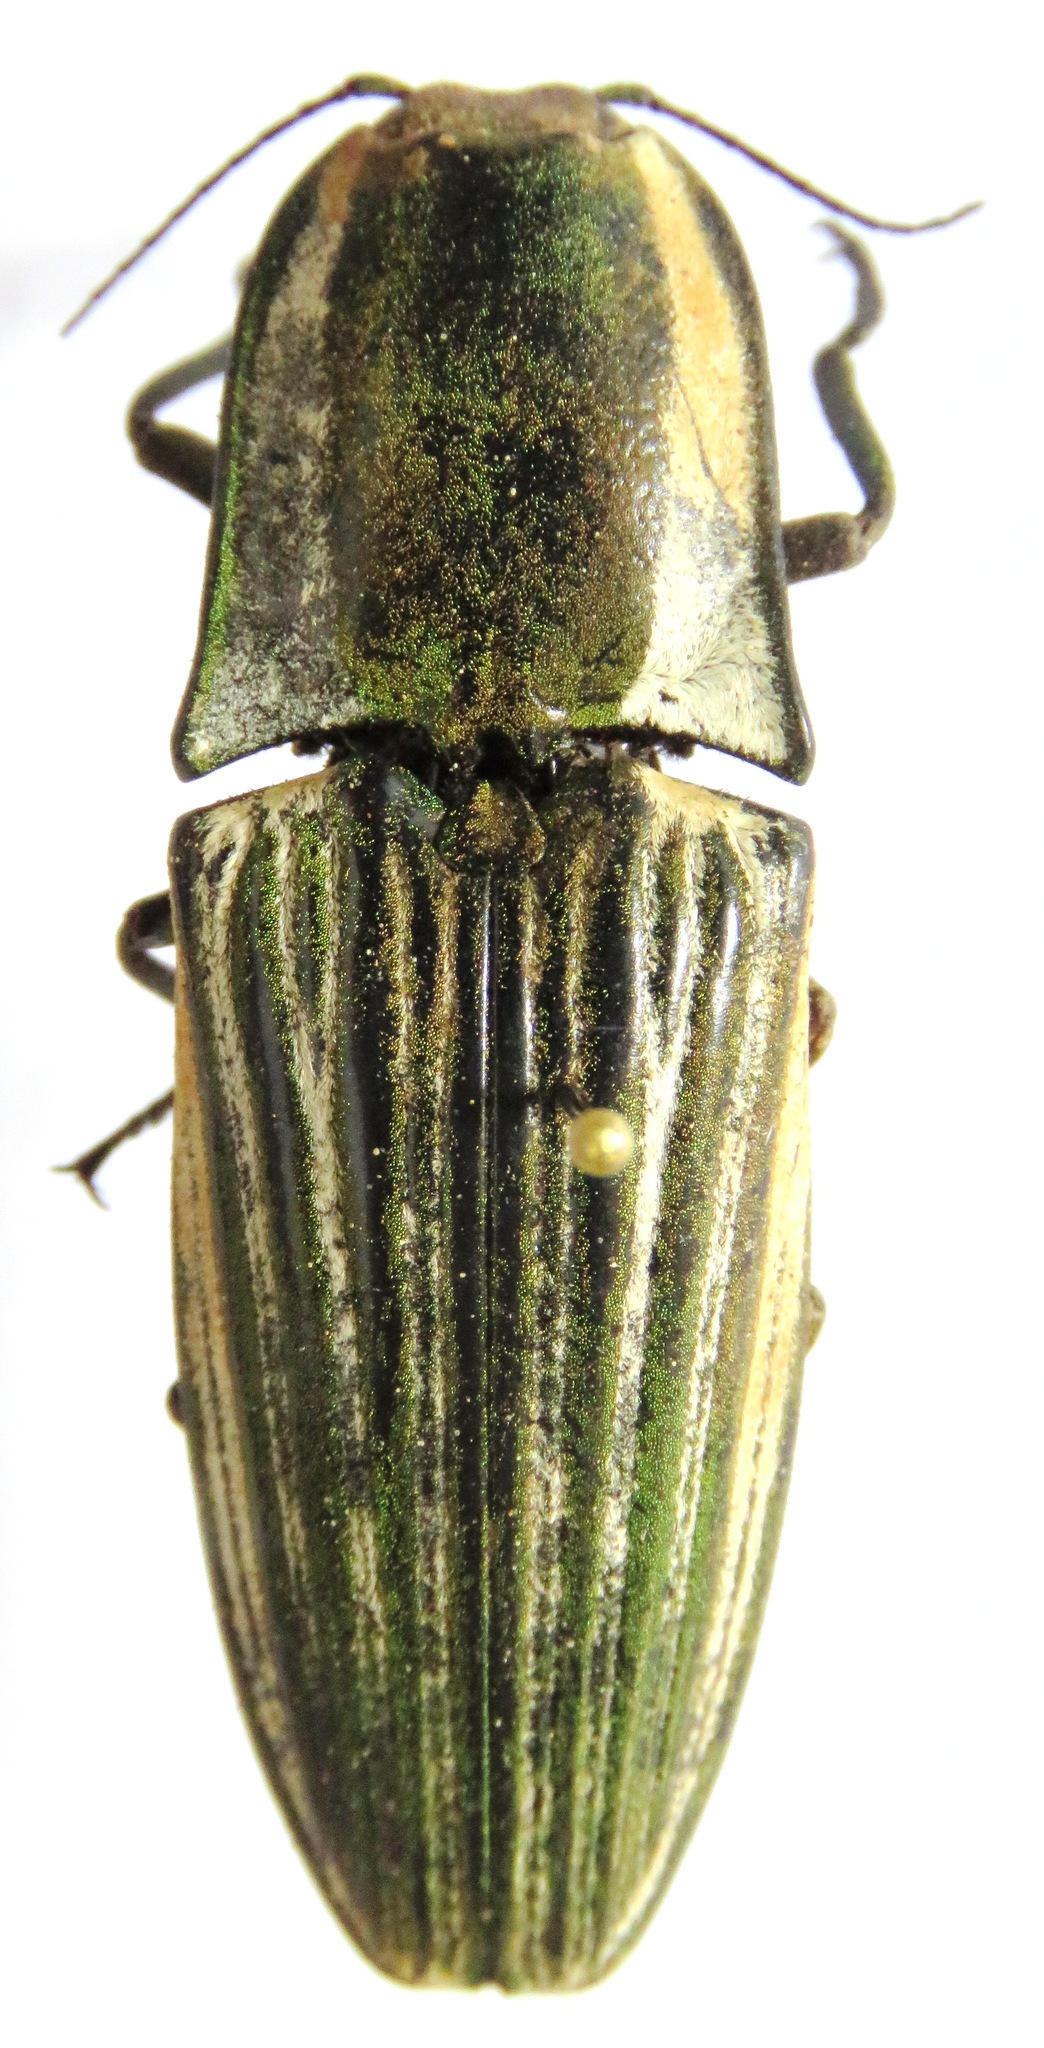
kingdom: Animalia
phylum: Arthropoda
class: Insecta
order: Coleoptera
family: Elateridae
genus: Chalcolepidius
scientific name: Chalcolepidius zonatus
